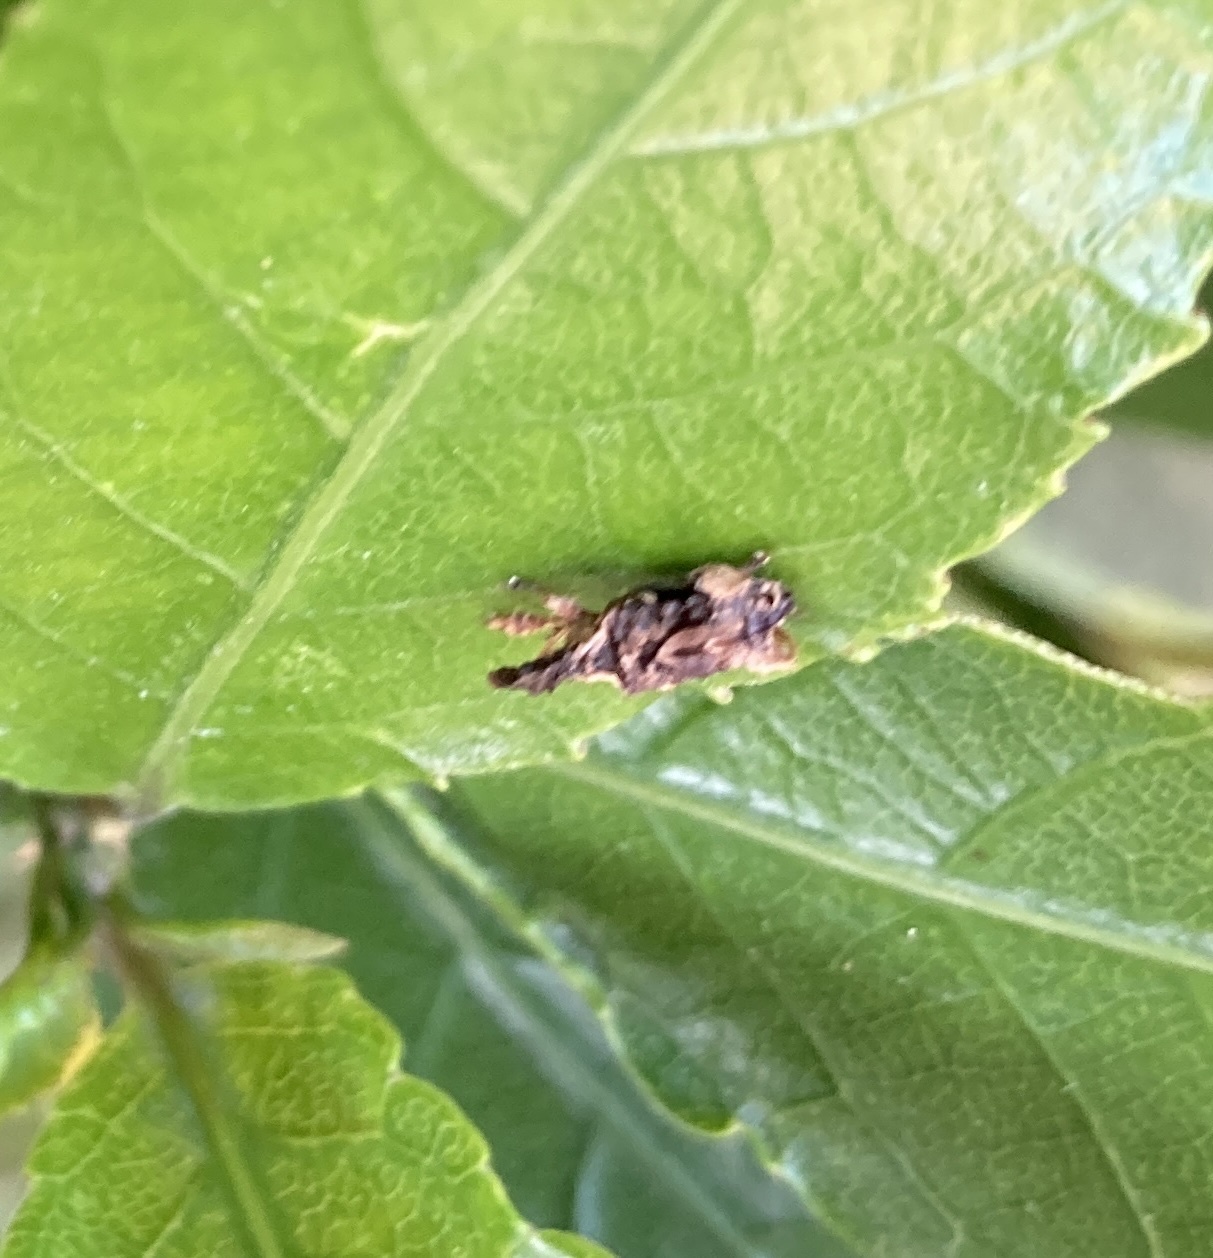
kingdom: Animalia
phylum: Arthropoda
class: Insecta
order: Coleoptera
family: Curculionidae
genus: Stephanorhynchus
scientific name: Stephanorhynchus curvipes
